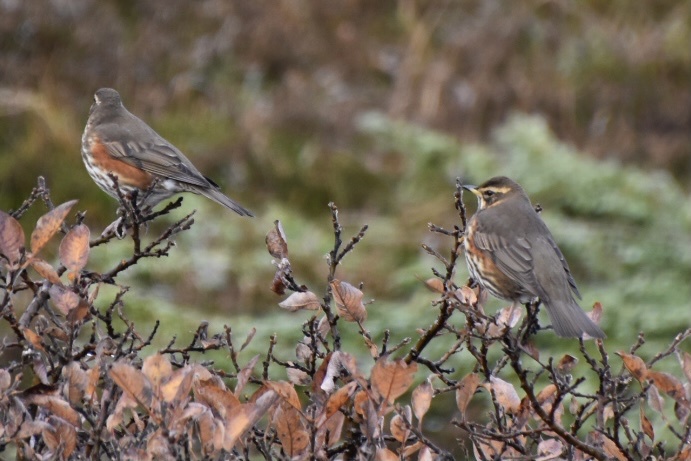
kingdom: Animalia
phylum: Chordata
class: Aves
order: Passeriformes
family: Turdidae
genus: Turdus
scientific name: Turdus iliacus
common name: Redwing
